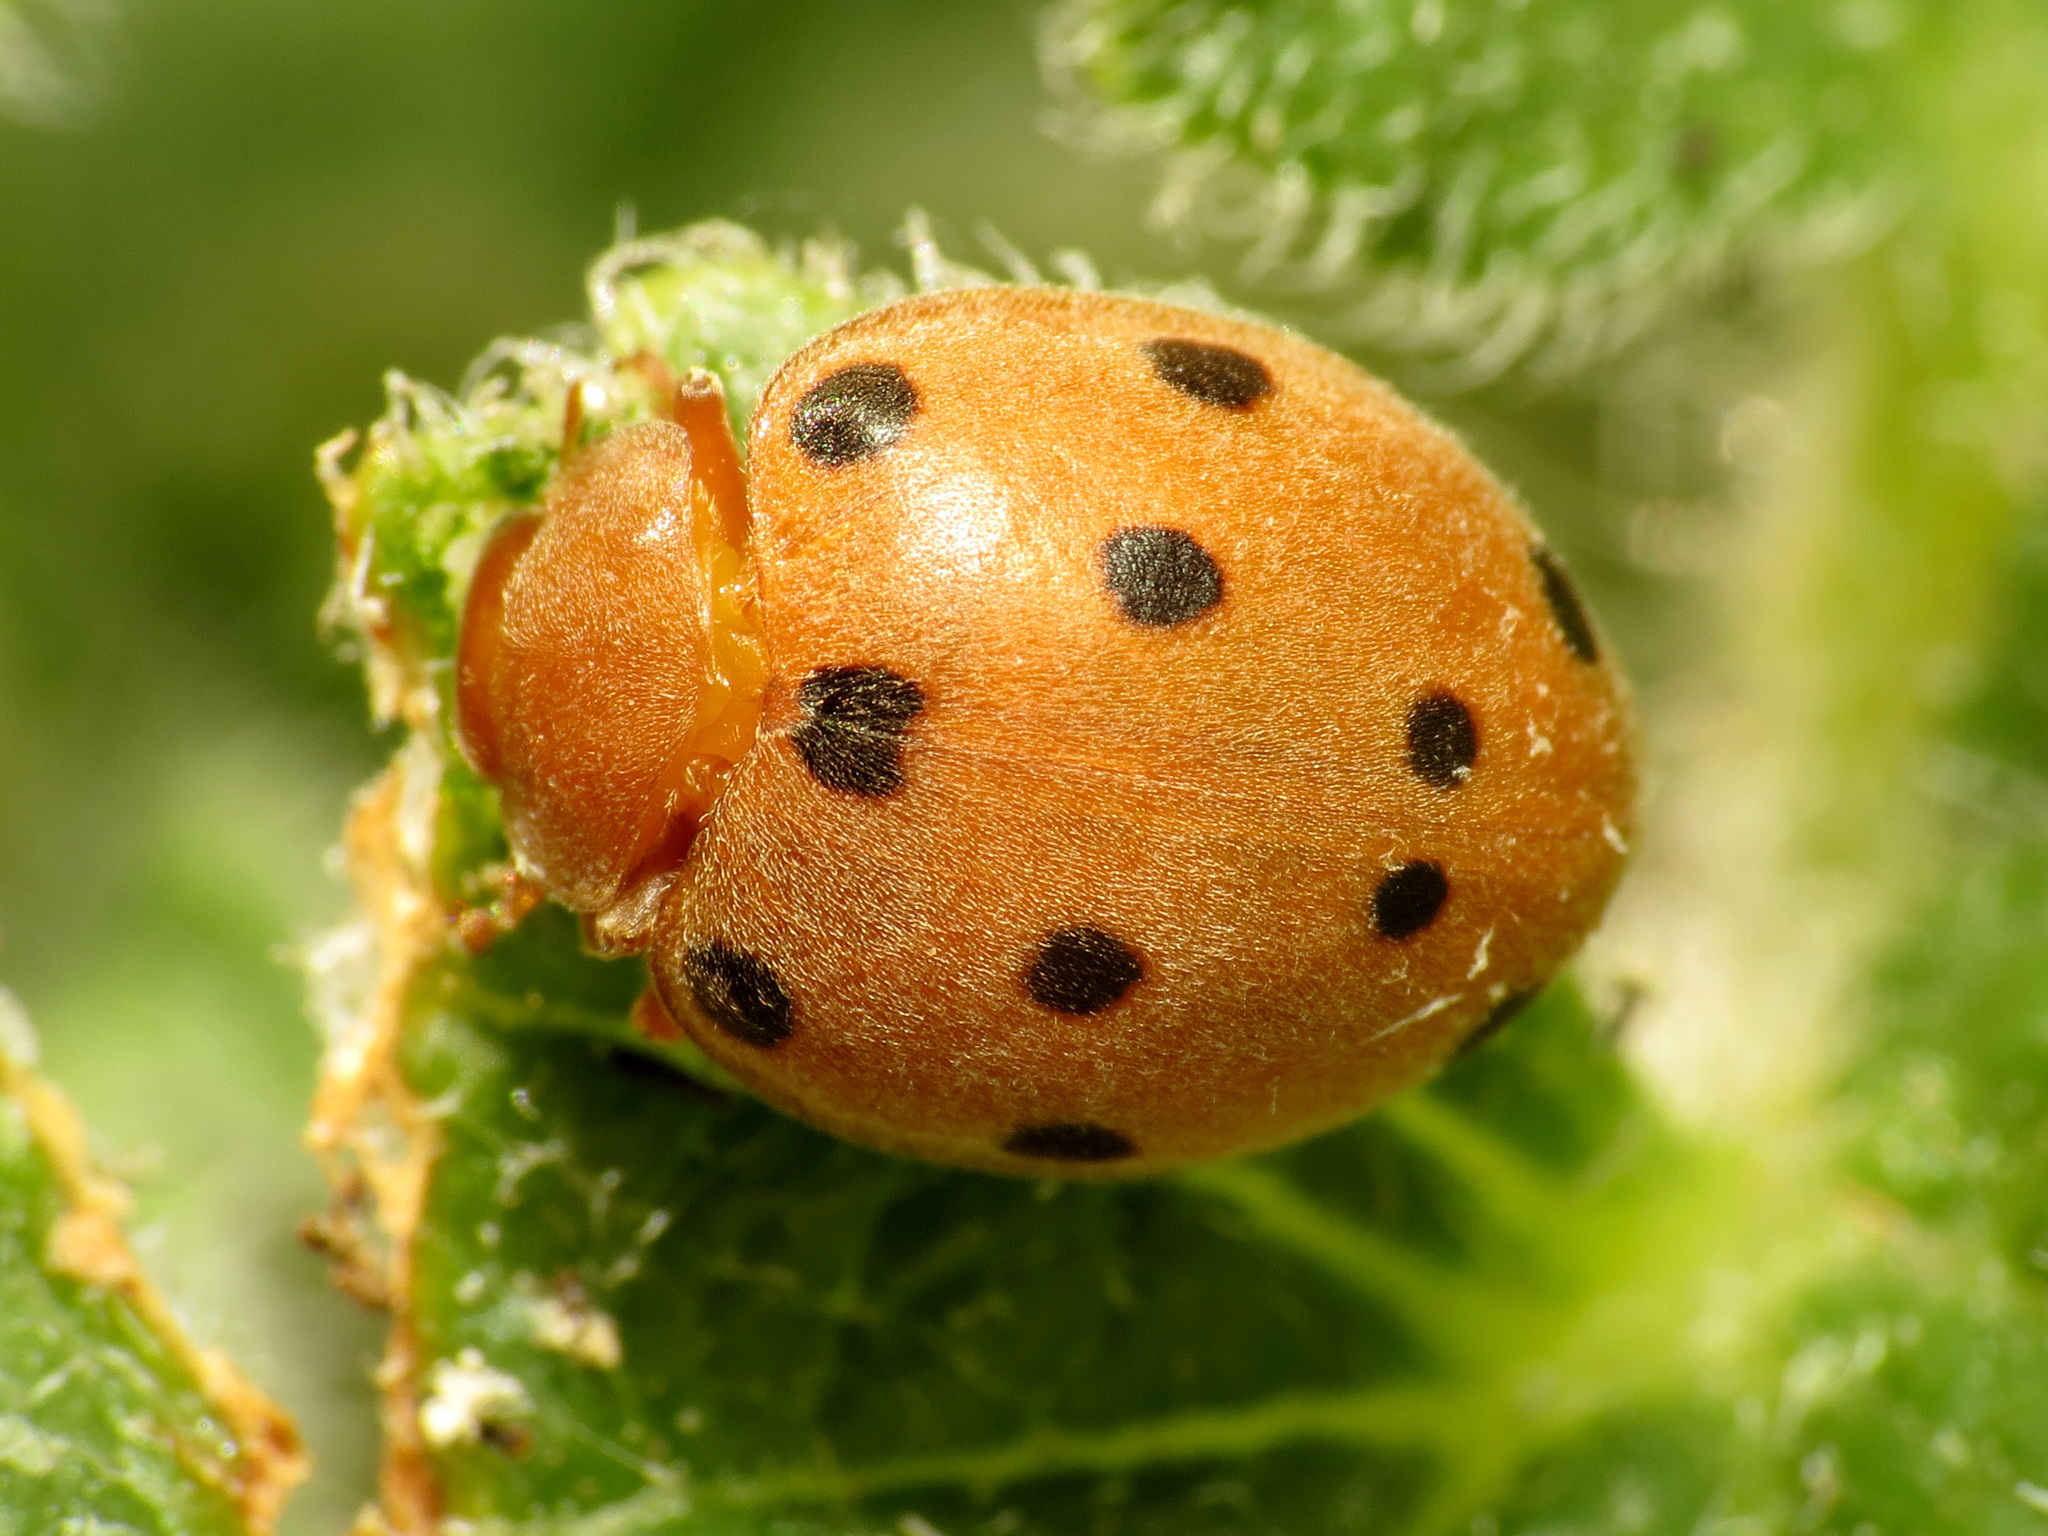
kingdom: Animalia
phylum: Arthropoda
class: Insecta
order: Coleoptera
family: Coccinellidae
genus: Henosepilachna
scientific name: Henosepilachna
